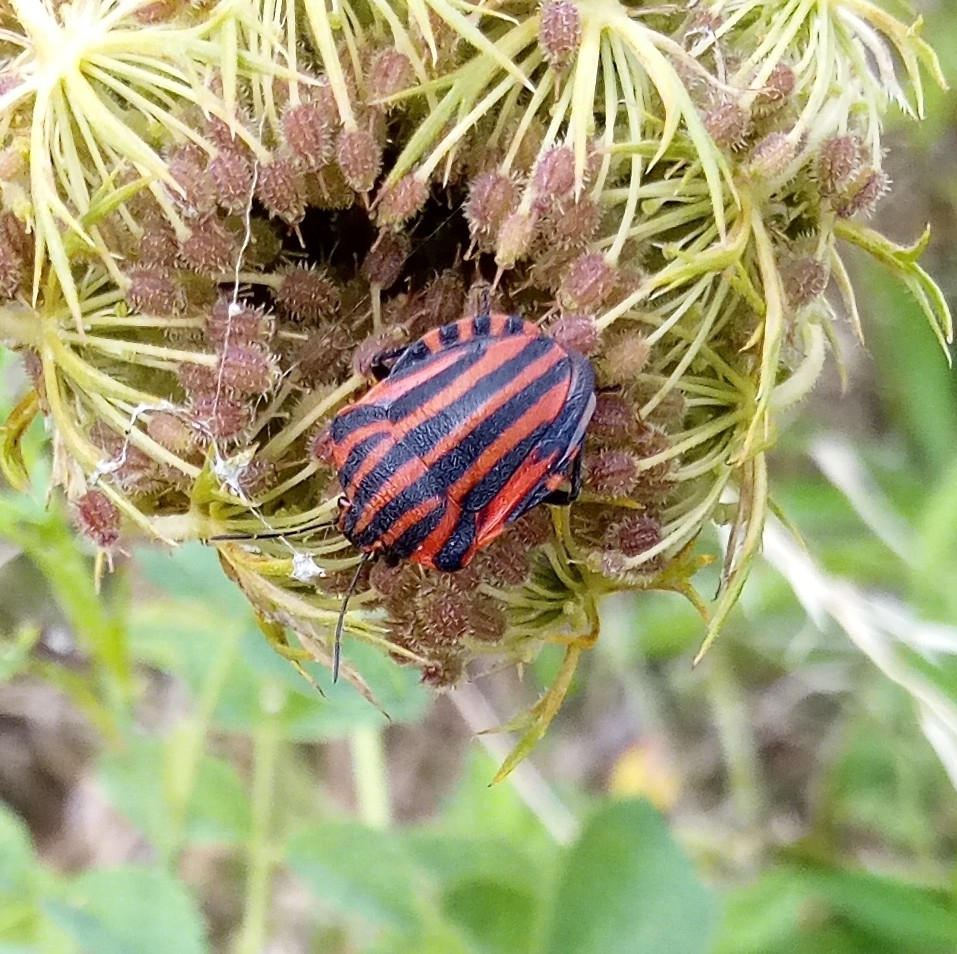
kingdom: Animalia
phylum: Arthropoda
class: Insecta
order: Hemiptera
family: Pentatomidae
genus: Graphosoma
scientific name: Graphosoma italicum
